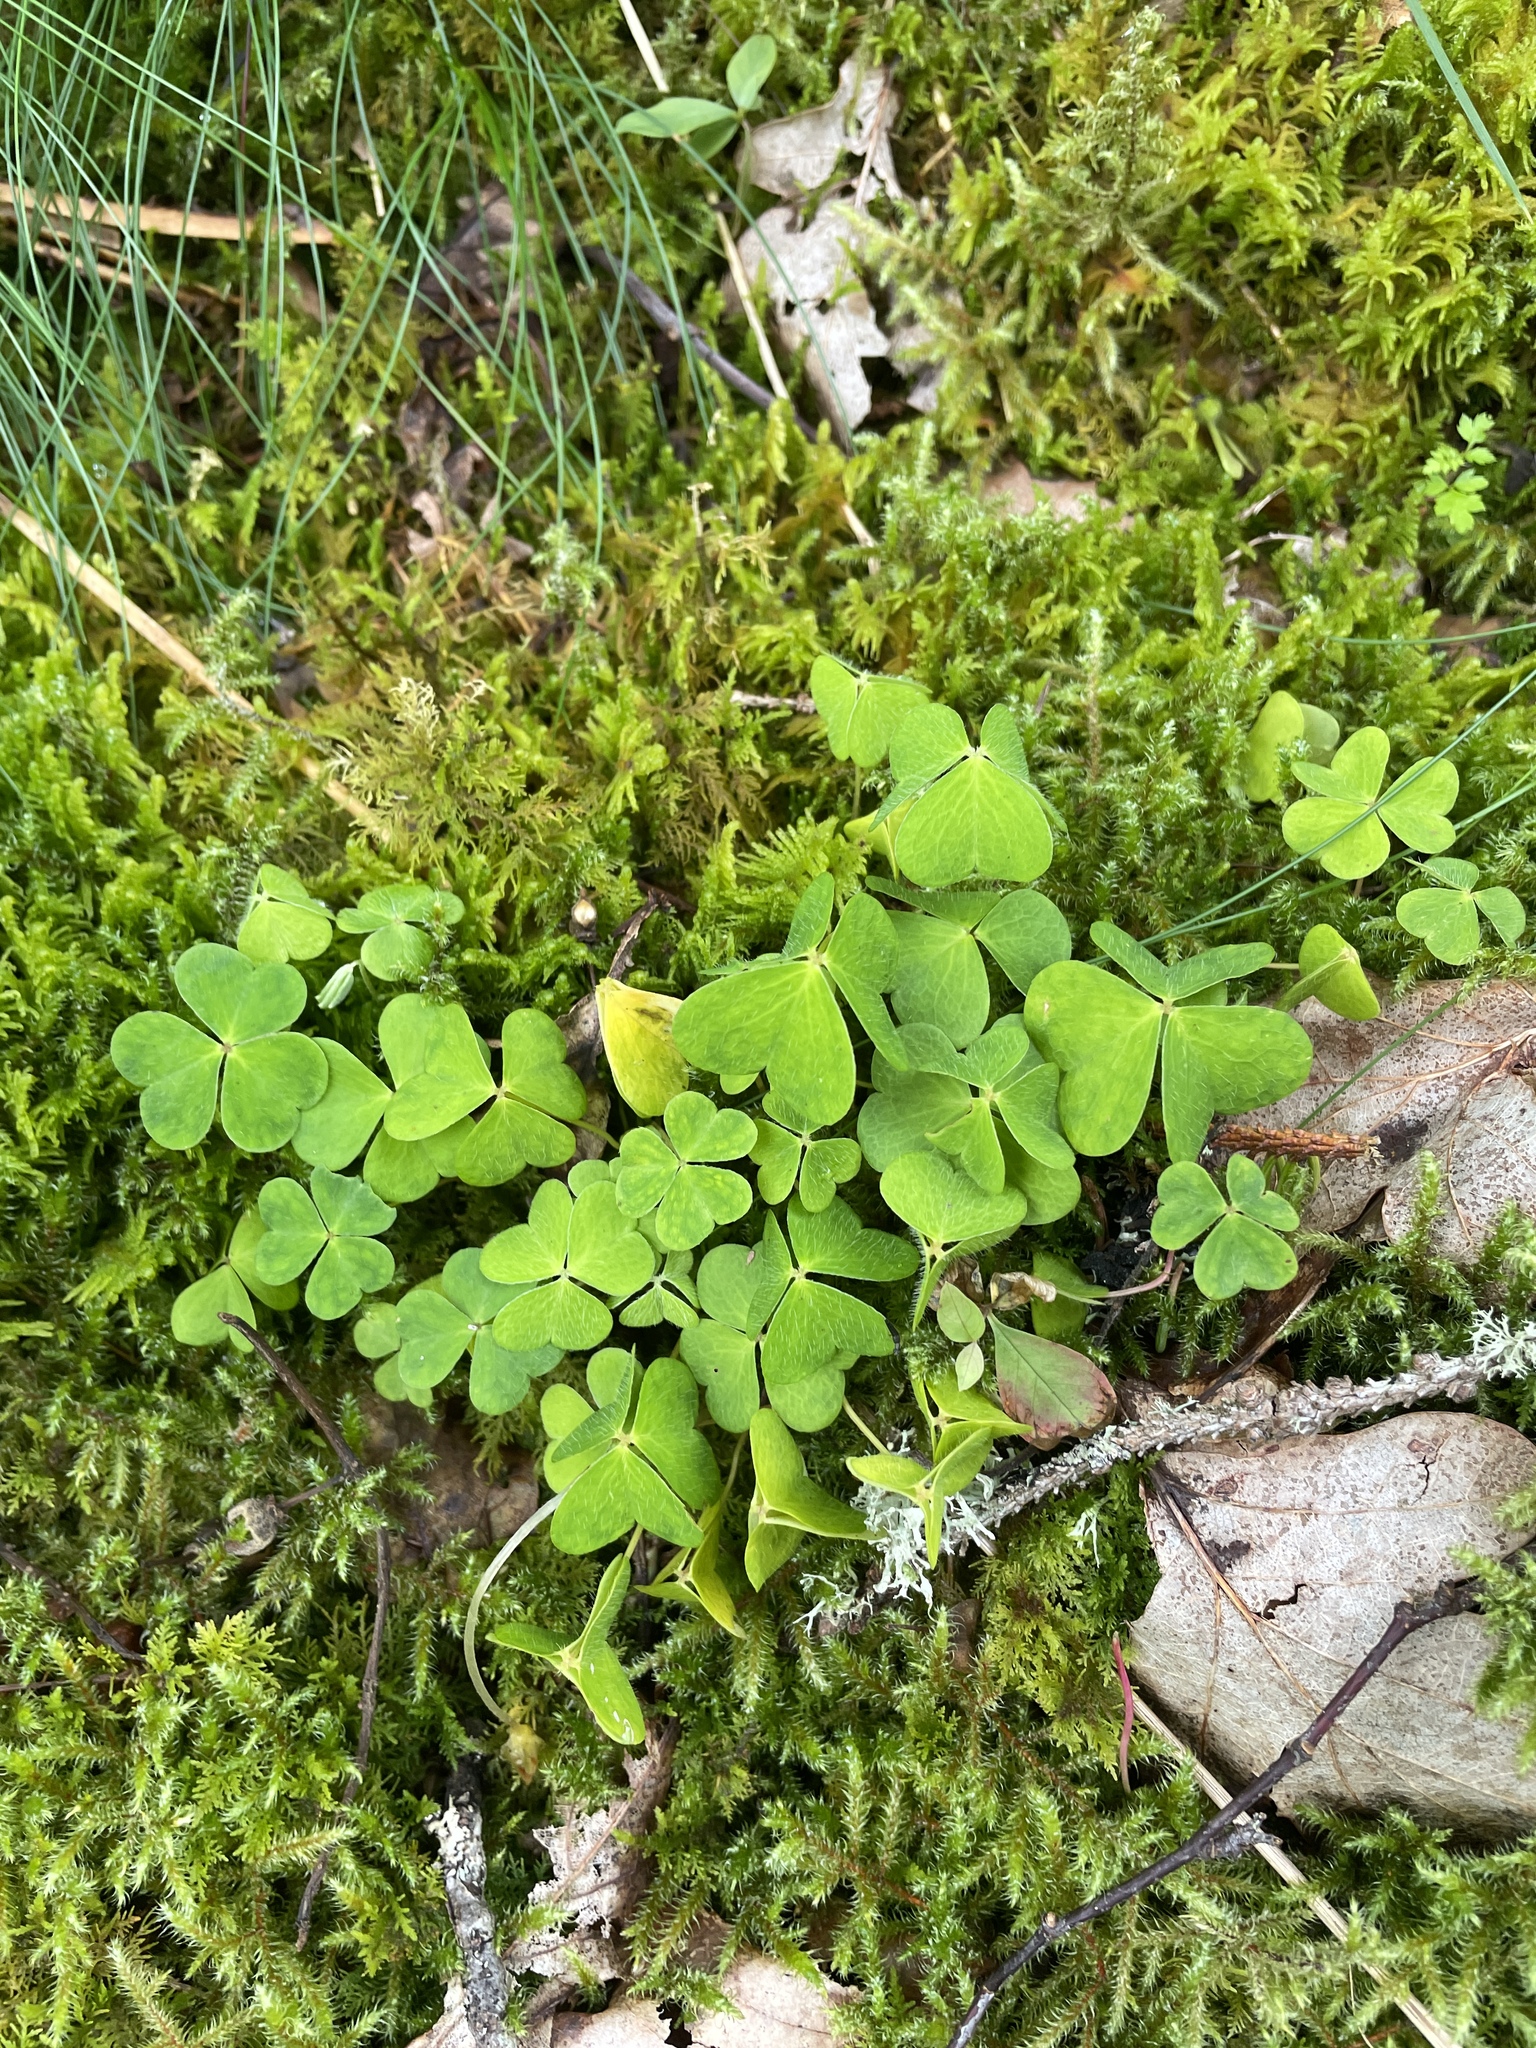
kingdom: Plantae
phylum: Tracheophyta
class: Magnoliopsida
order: Oxalidales
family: Oxalidaceae
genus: Oxalis
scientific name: Oxalis acetosella
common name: Wood-sorrel
